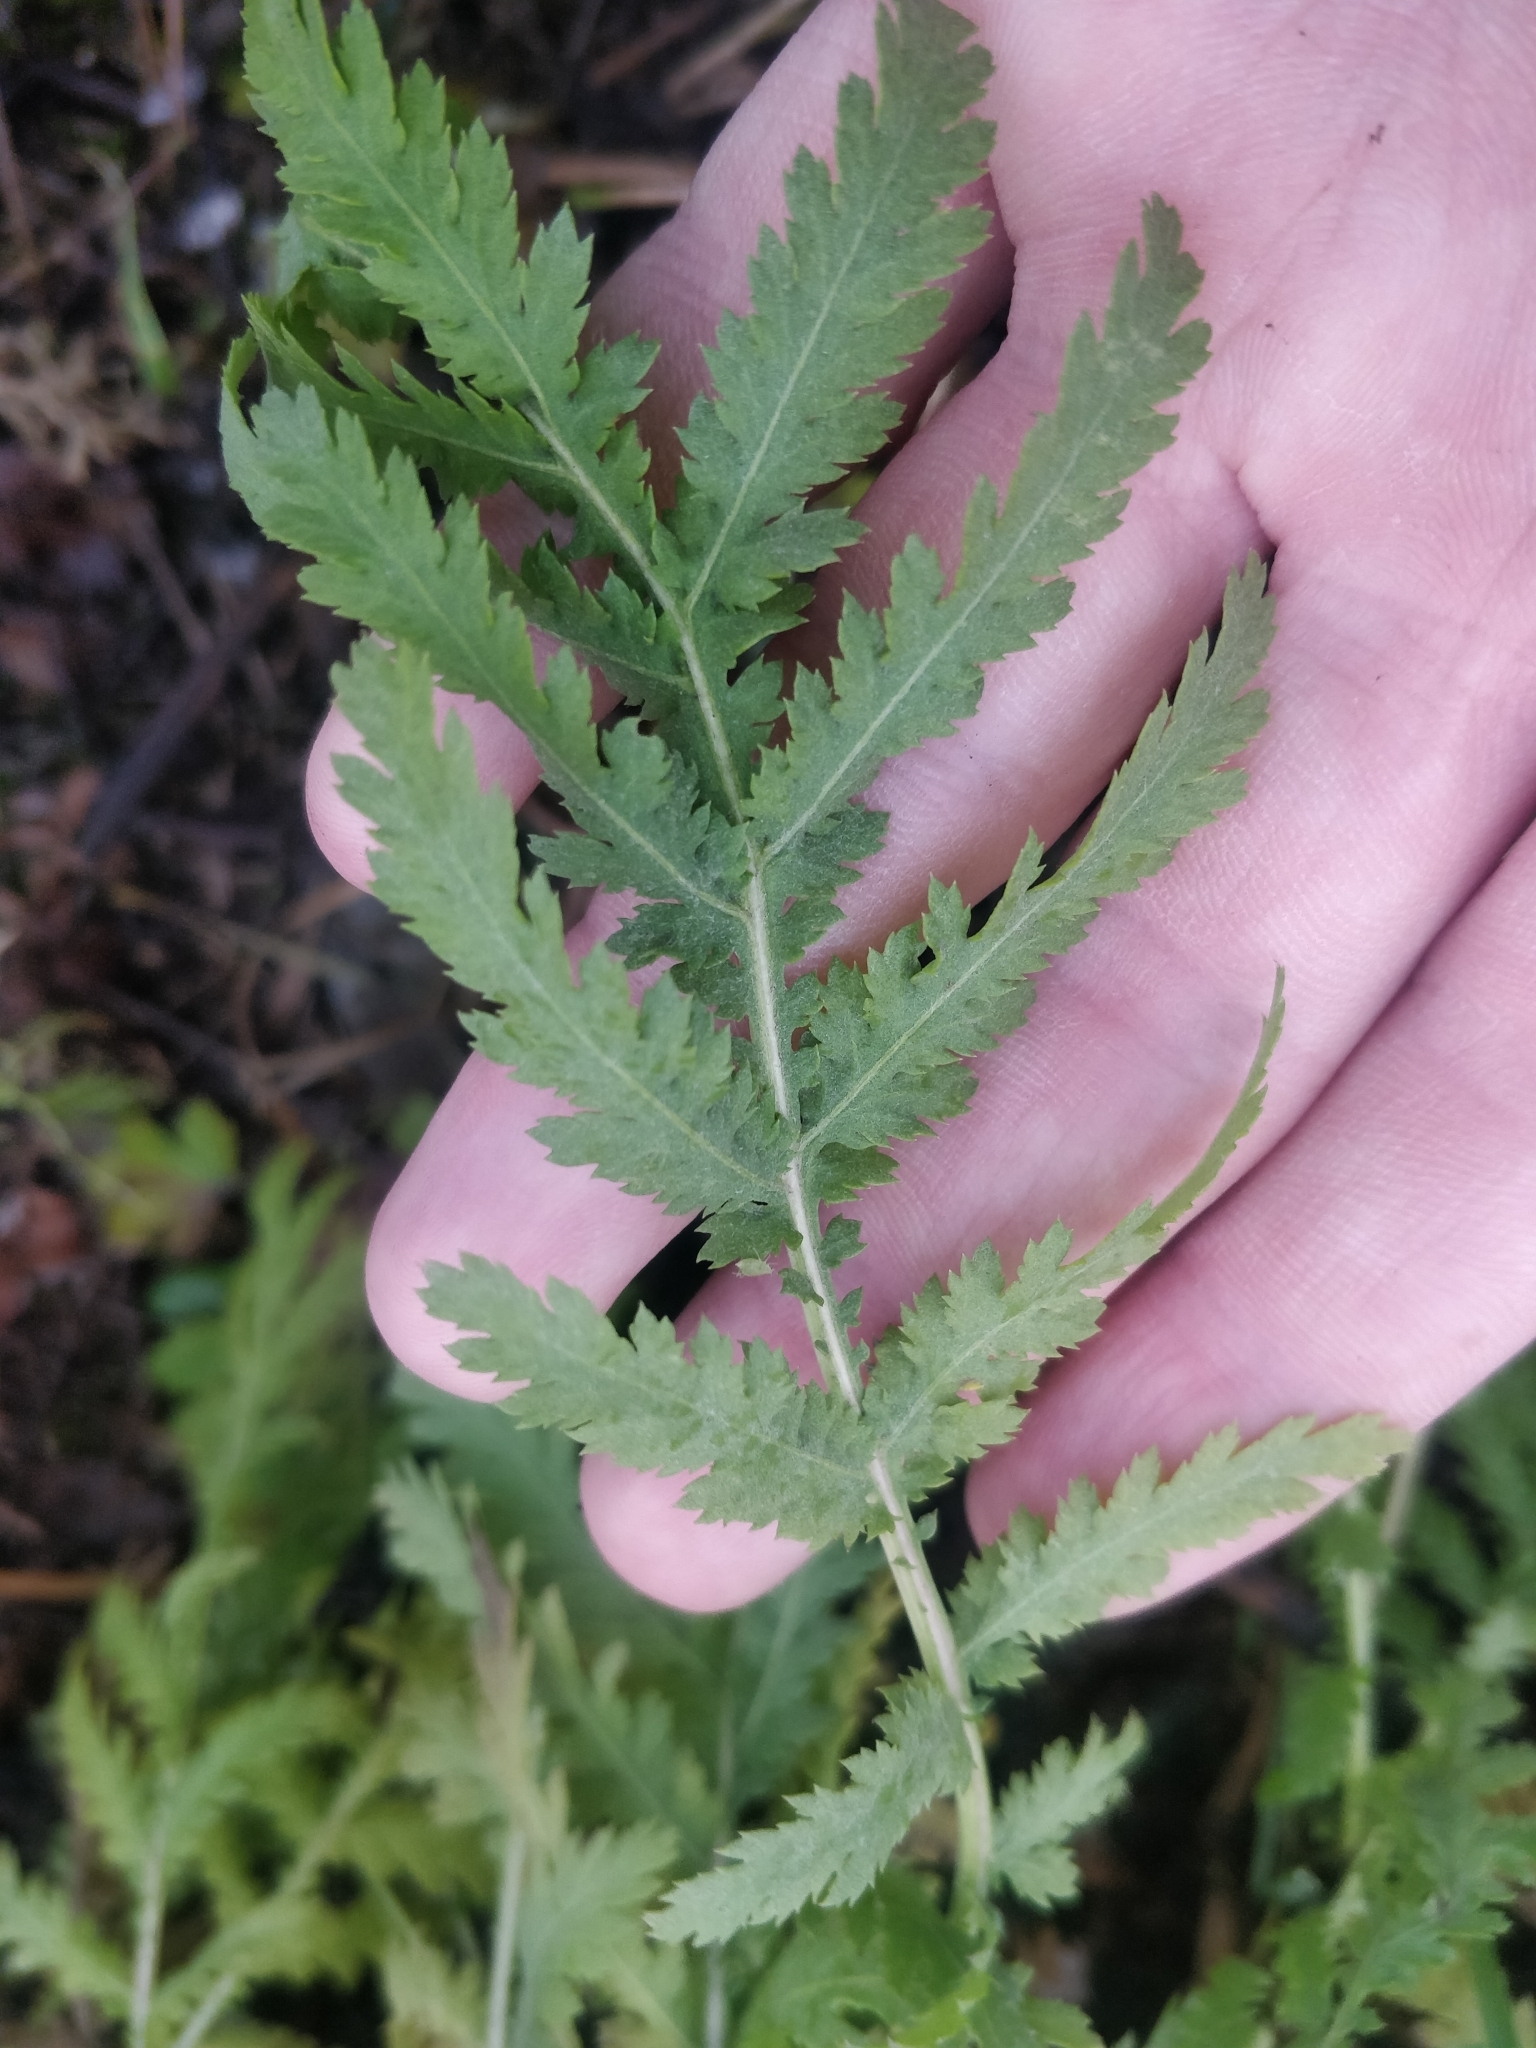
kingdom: Plantae
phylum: Tracheophyta
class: Magnoliopsida
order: Asterales
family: Asteraceae
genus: Tanacetum
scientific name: Tanacetum vulgare
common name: Common tansy
